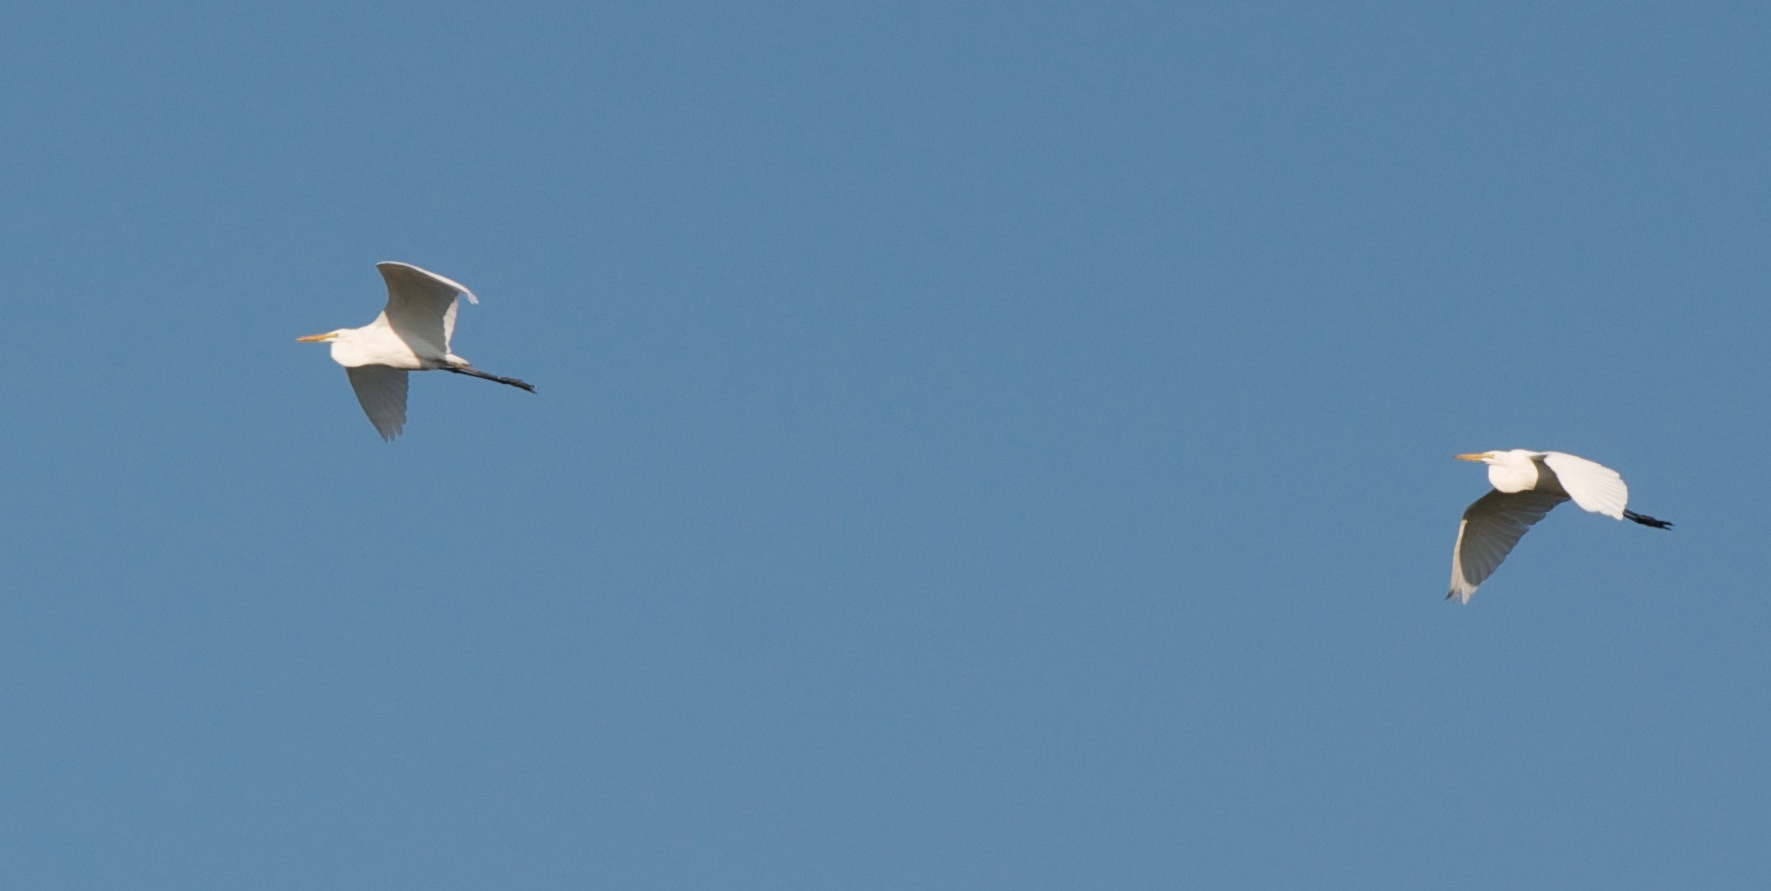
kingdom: Animalia
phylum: Chordata
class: Aves
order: Pelecaniformes
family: Ardeidae
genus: Ardea
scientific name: Ardea alba
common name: Great egret
